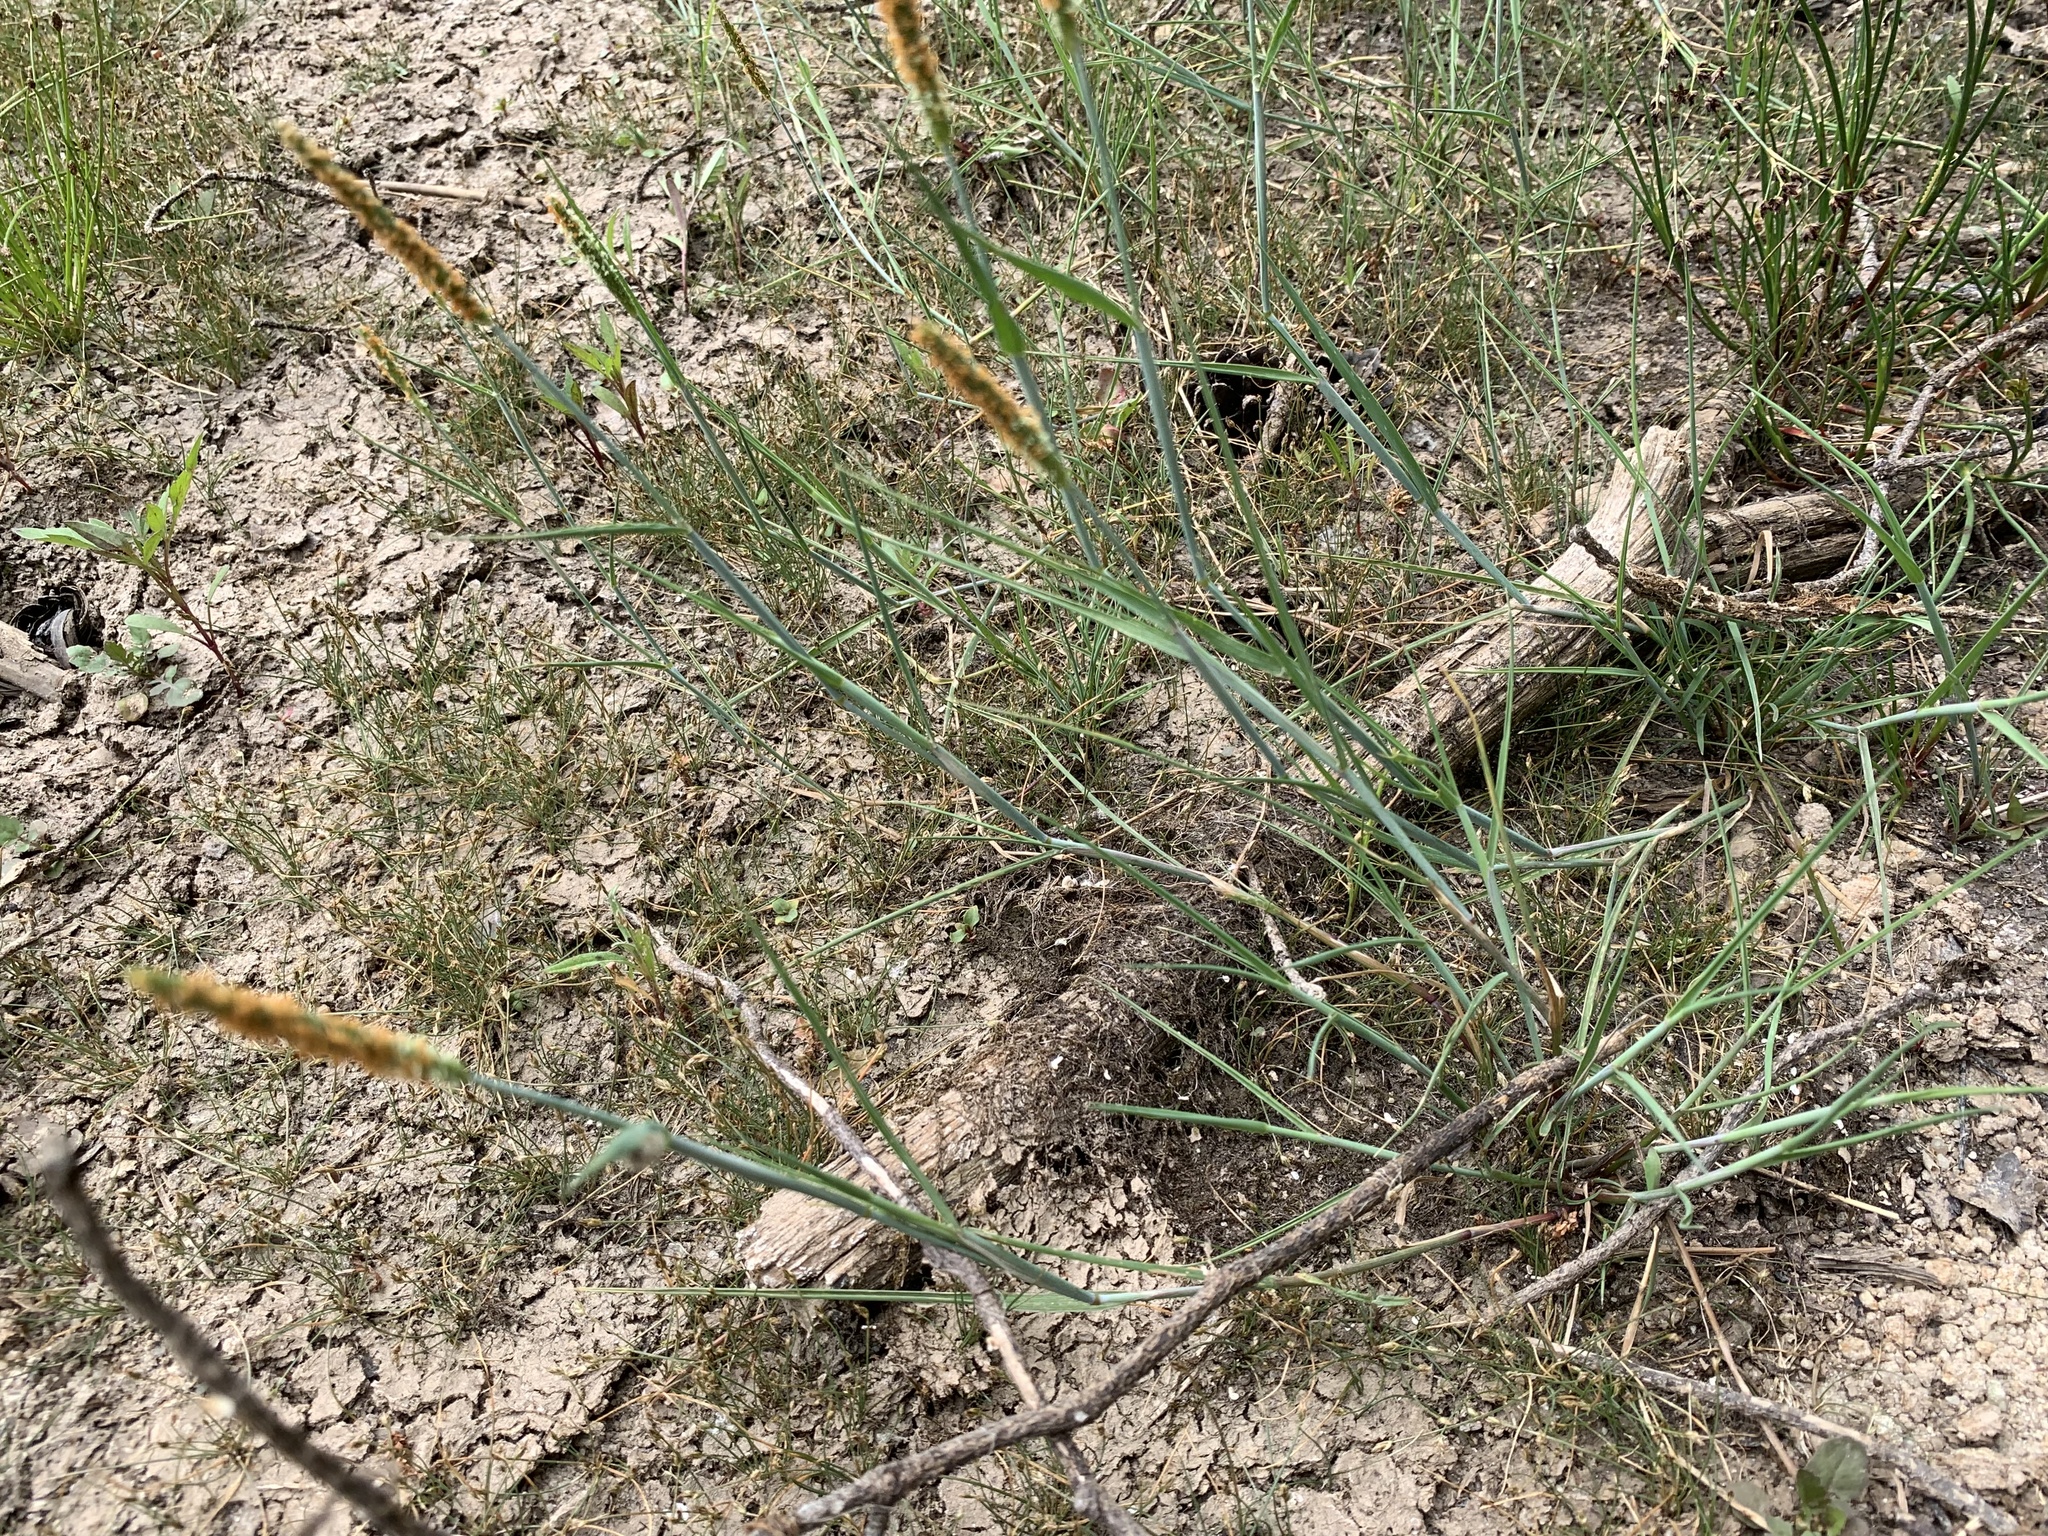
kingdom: Plantae
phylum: Tracheophyta
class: Liliopsida
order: Poales
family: Poaceae
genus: Alopecurus
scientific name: Alopecurus aequalis
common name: Orange foxtail
